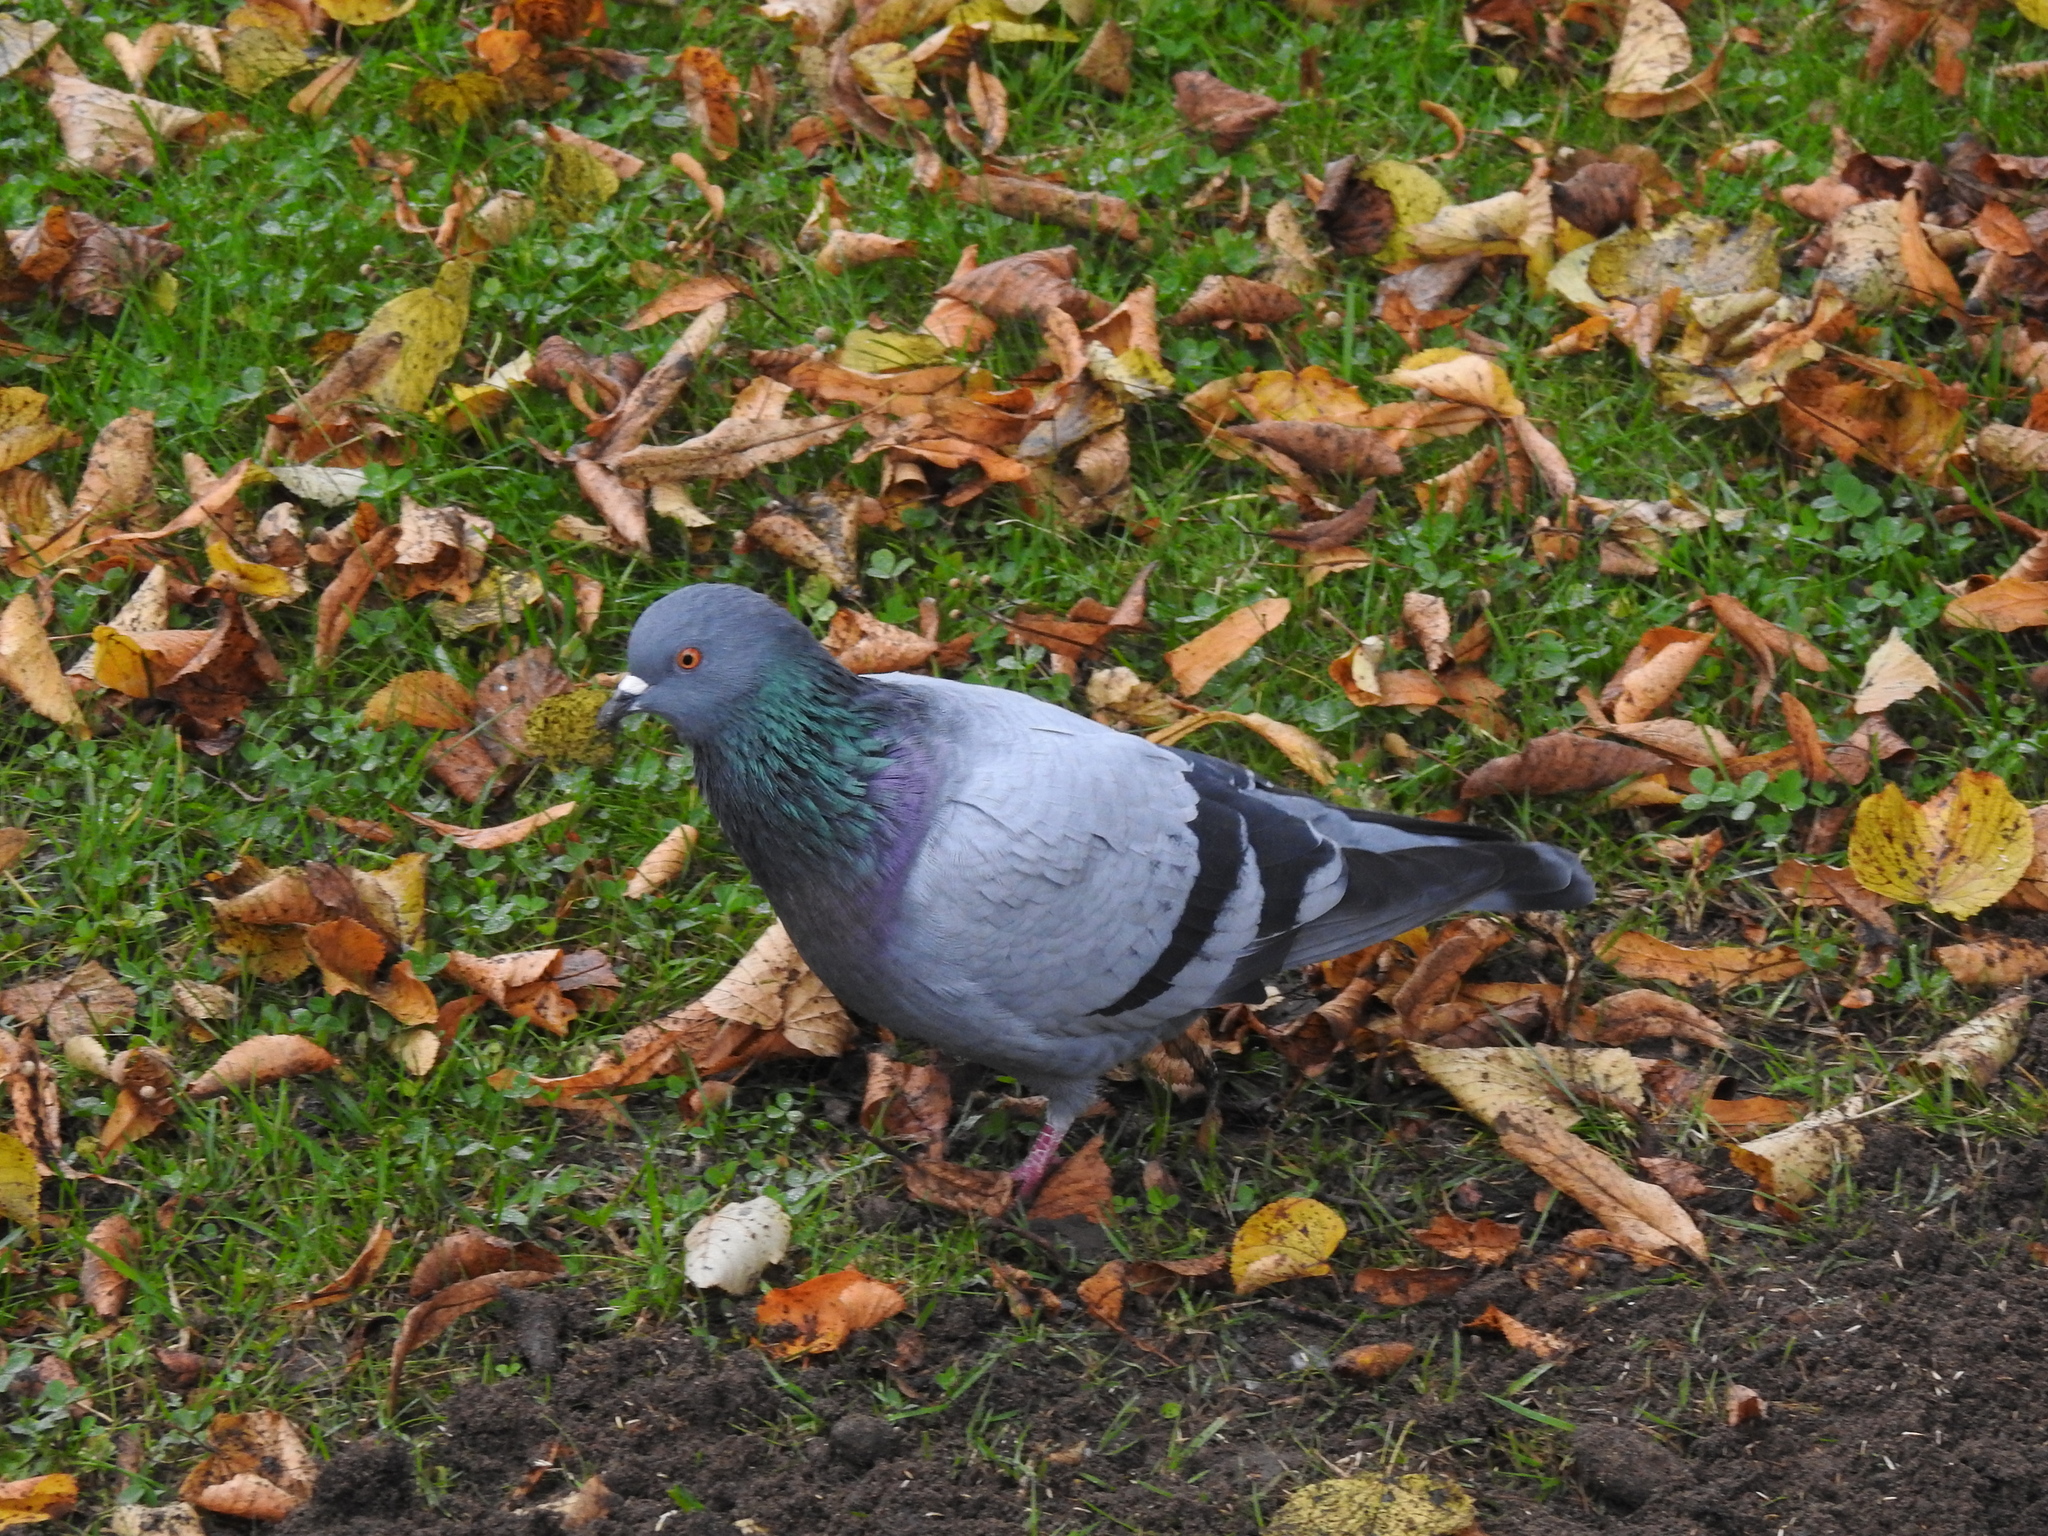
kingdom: Animalia
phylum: Chordata
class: Aves
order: Columbiformes
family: Columbidae
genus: Columba
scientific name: Columba livia
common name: Rock pigeon
